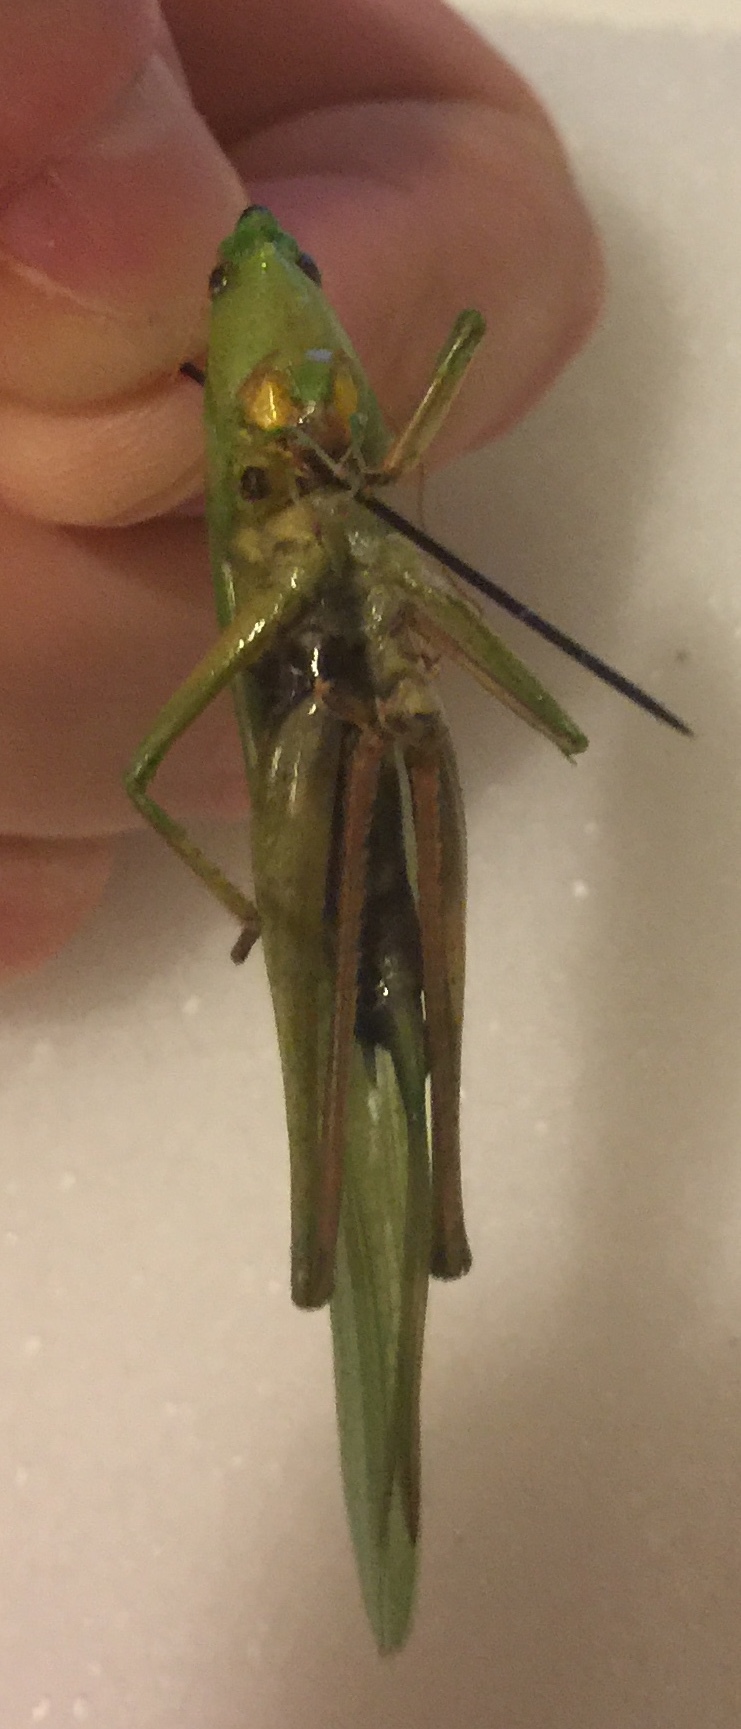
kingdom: Animalia
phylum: Arthropoda
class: Insecta
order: Orthoptera
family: Tettigoniidae
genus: Neoconocephalus
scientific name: Neoconocephalus triops
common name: Broad-tipped conehead
